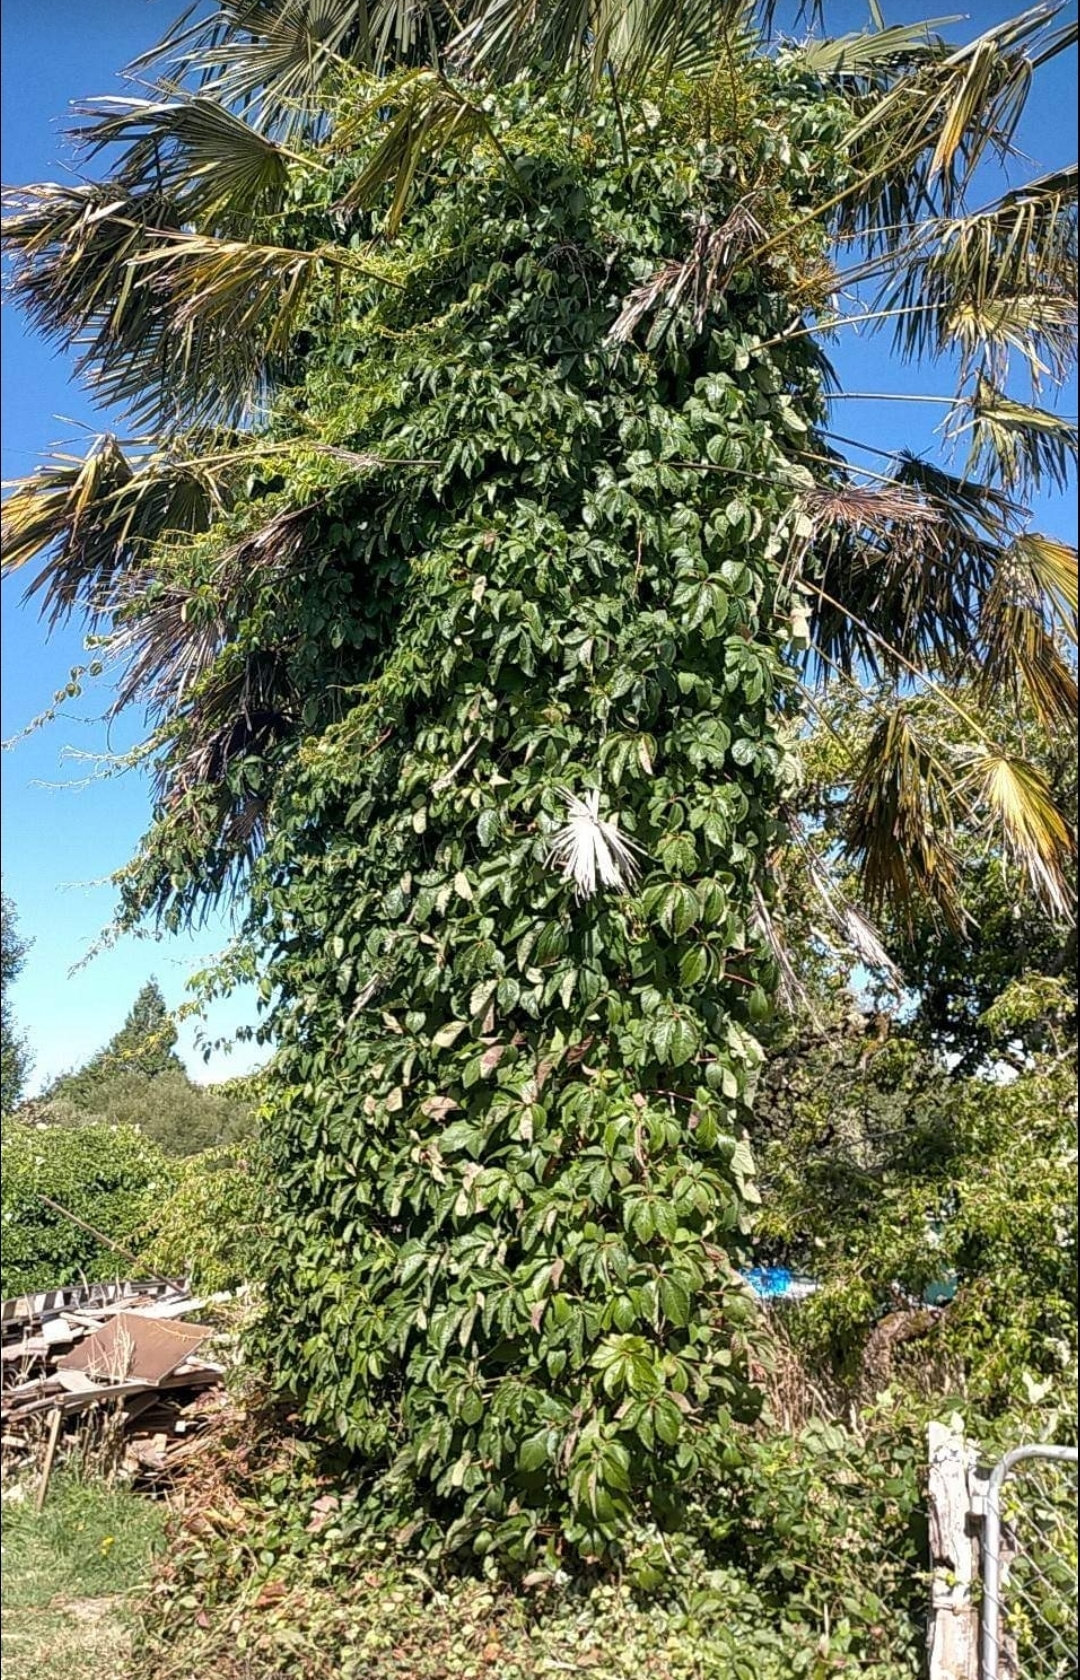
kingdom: Plantae
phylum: Tracheophyta
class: Magnoliopsida
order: Vitales
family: Vitaceae
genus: Parthenocissus
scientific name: Parthenocissus quinquefolia
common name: Virginia-creeper
